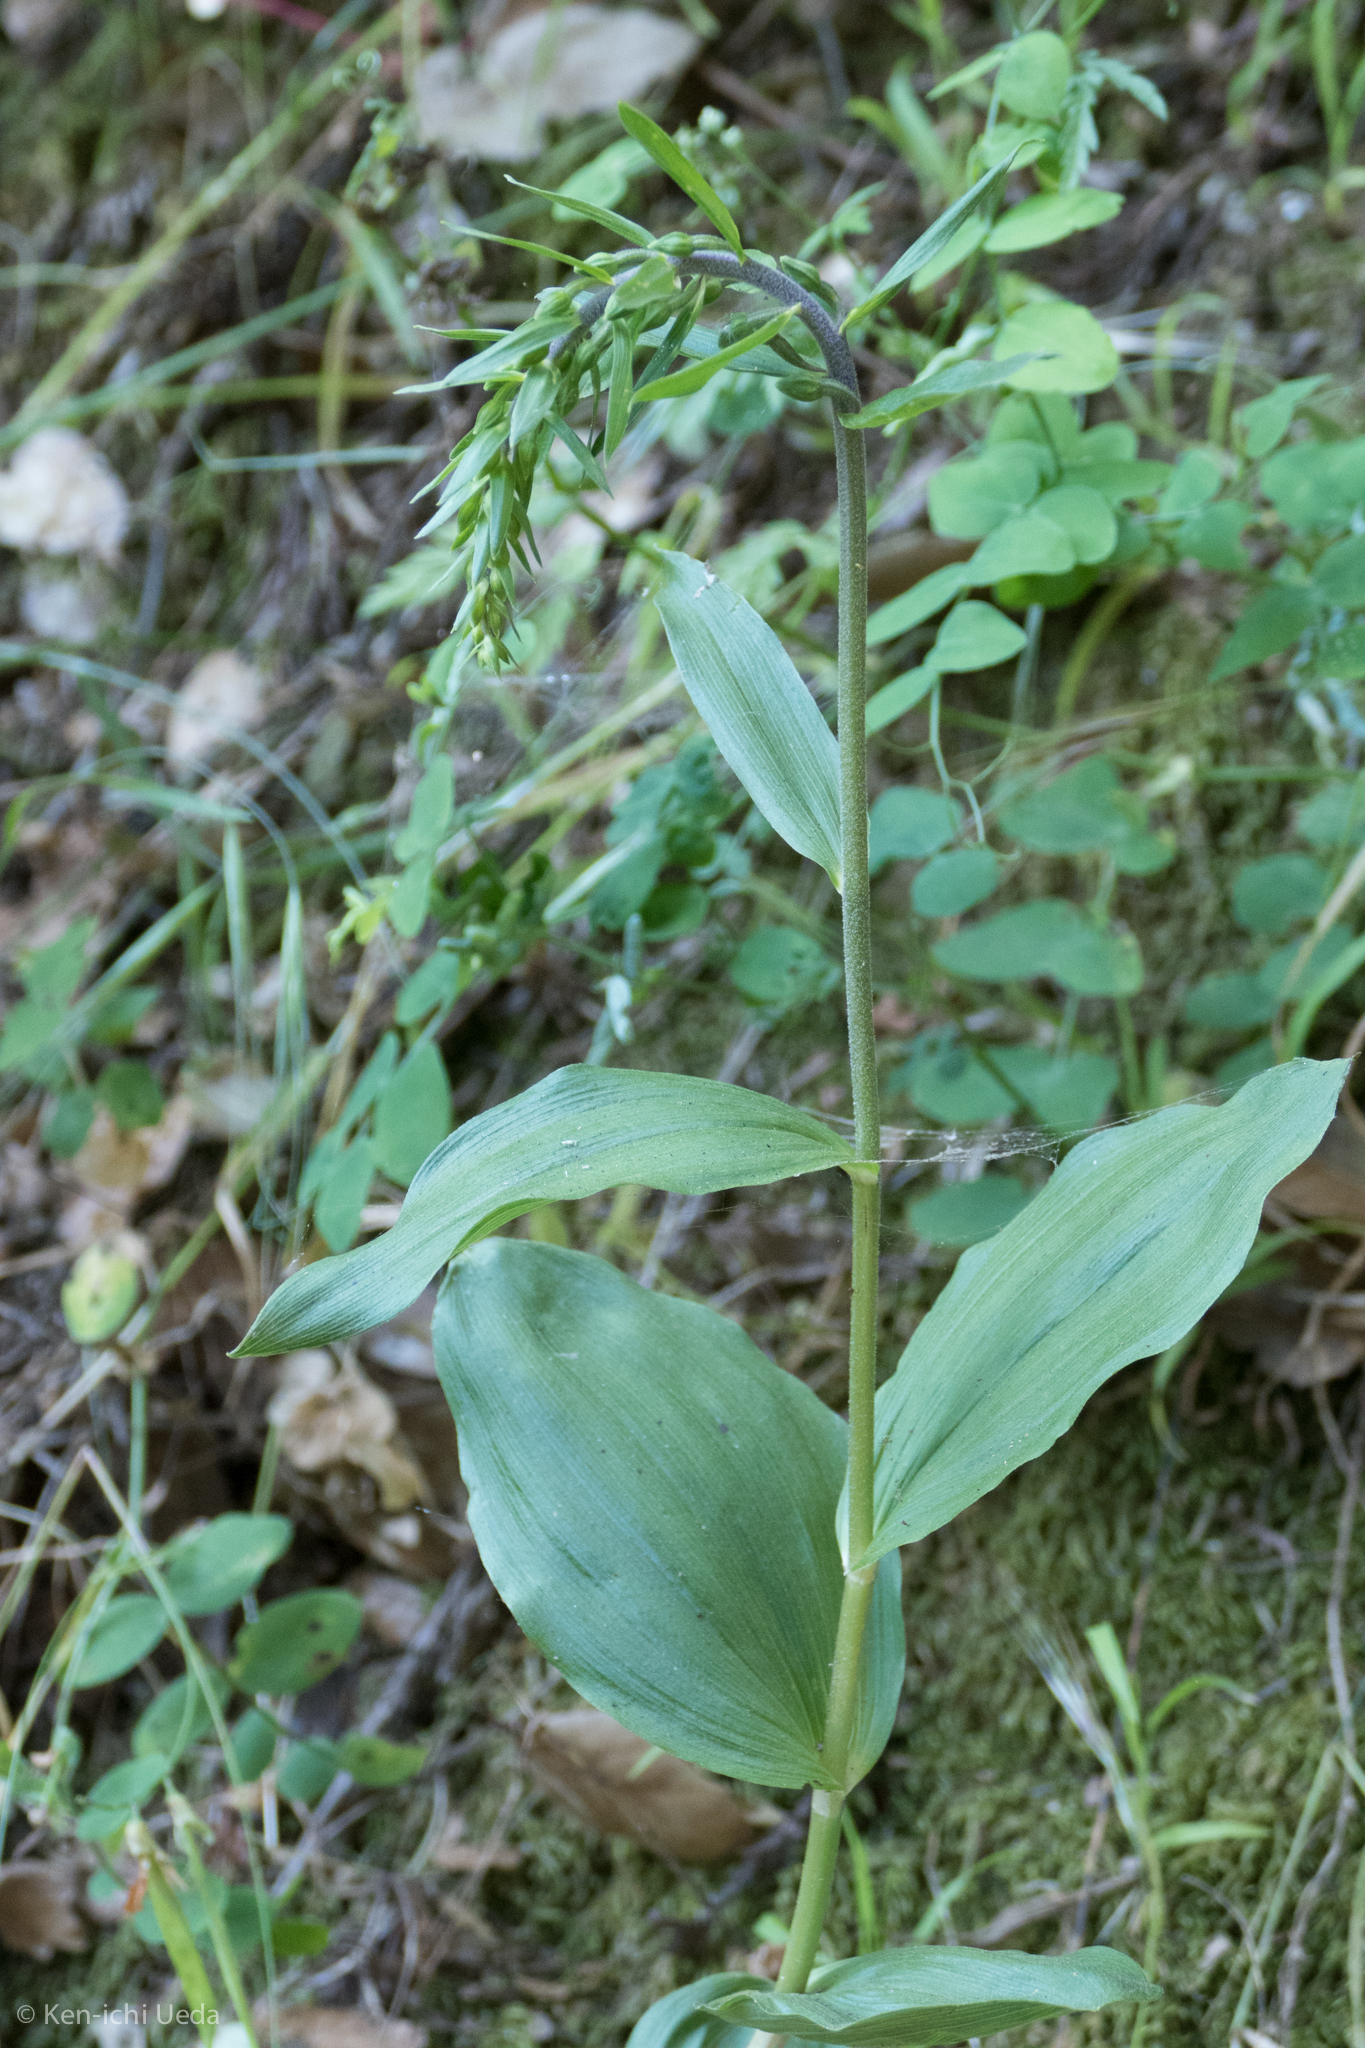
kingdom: Plantae
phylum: Tracheophyta
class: Liliopsida
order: Asparagales
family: Orchidaceae
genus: Epipactis
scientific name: Epipactis helleborine
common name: Broad-leaved helleborine
